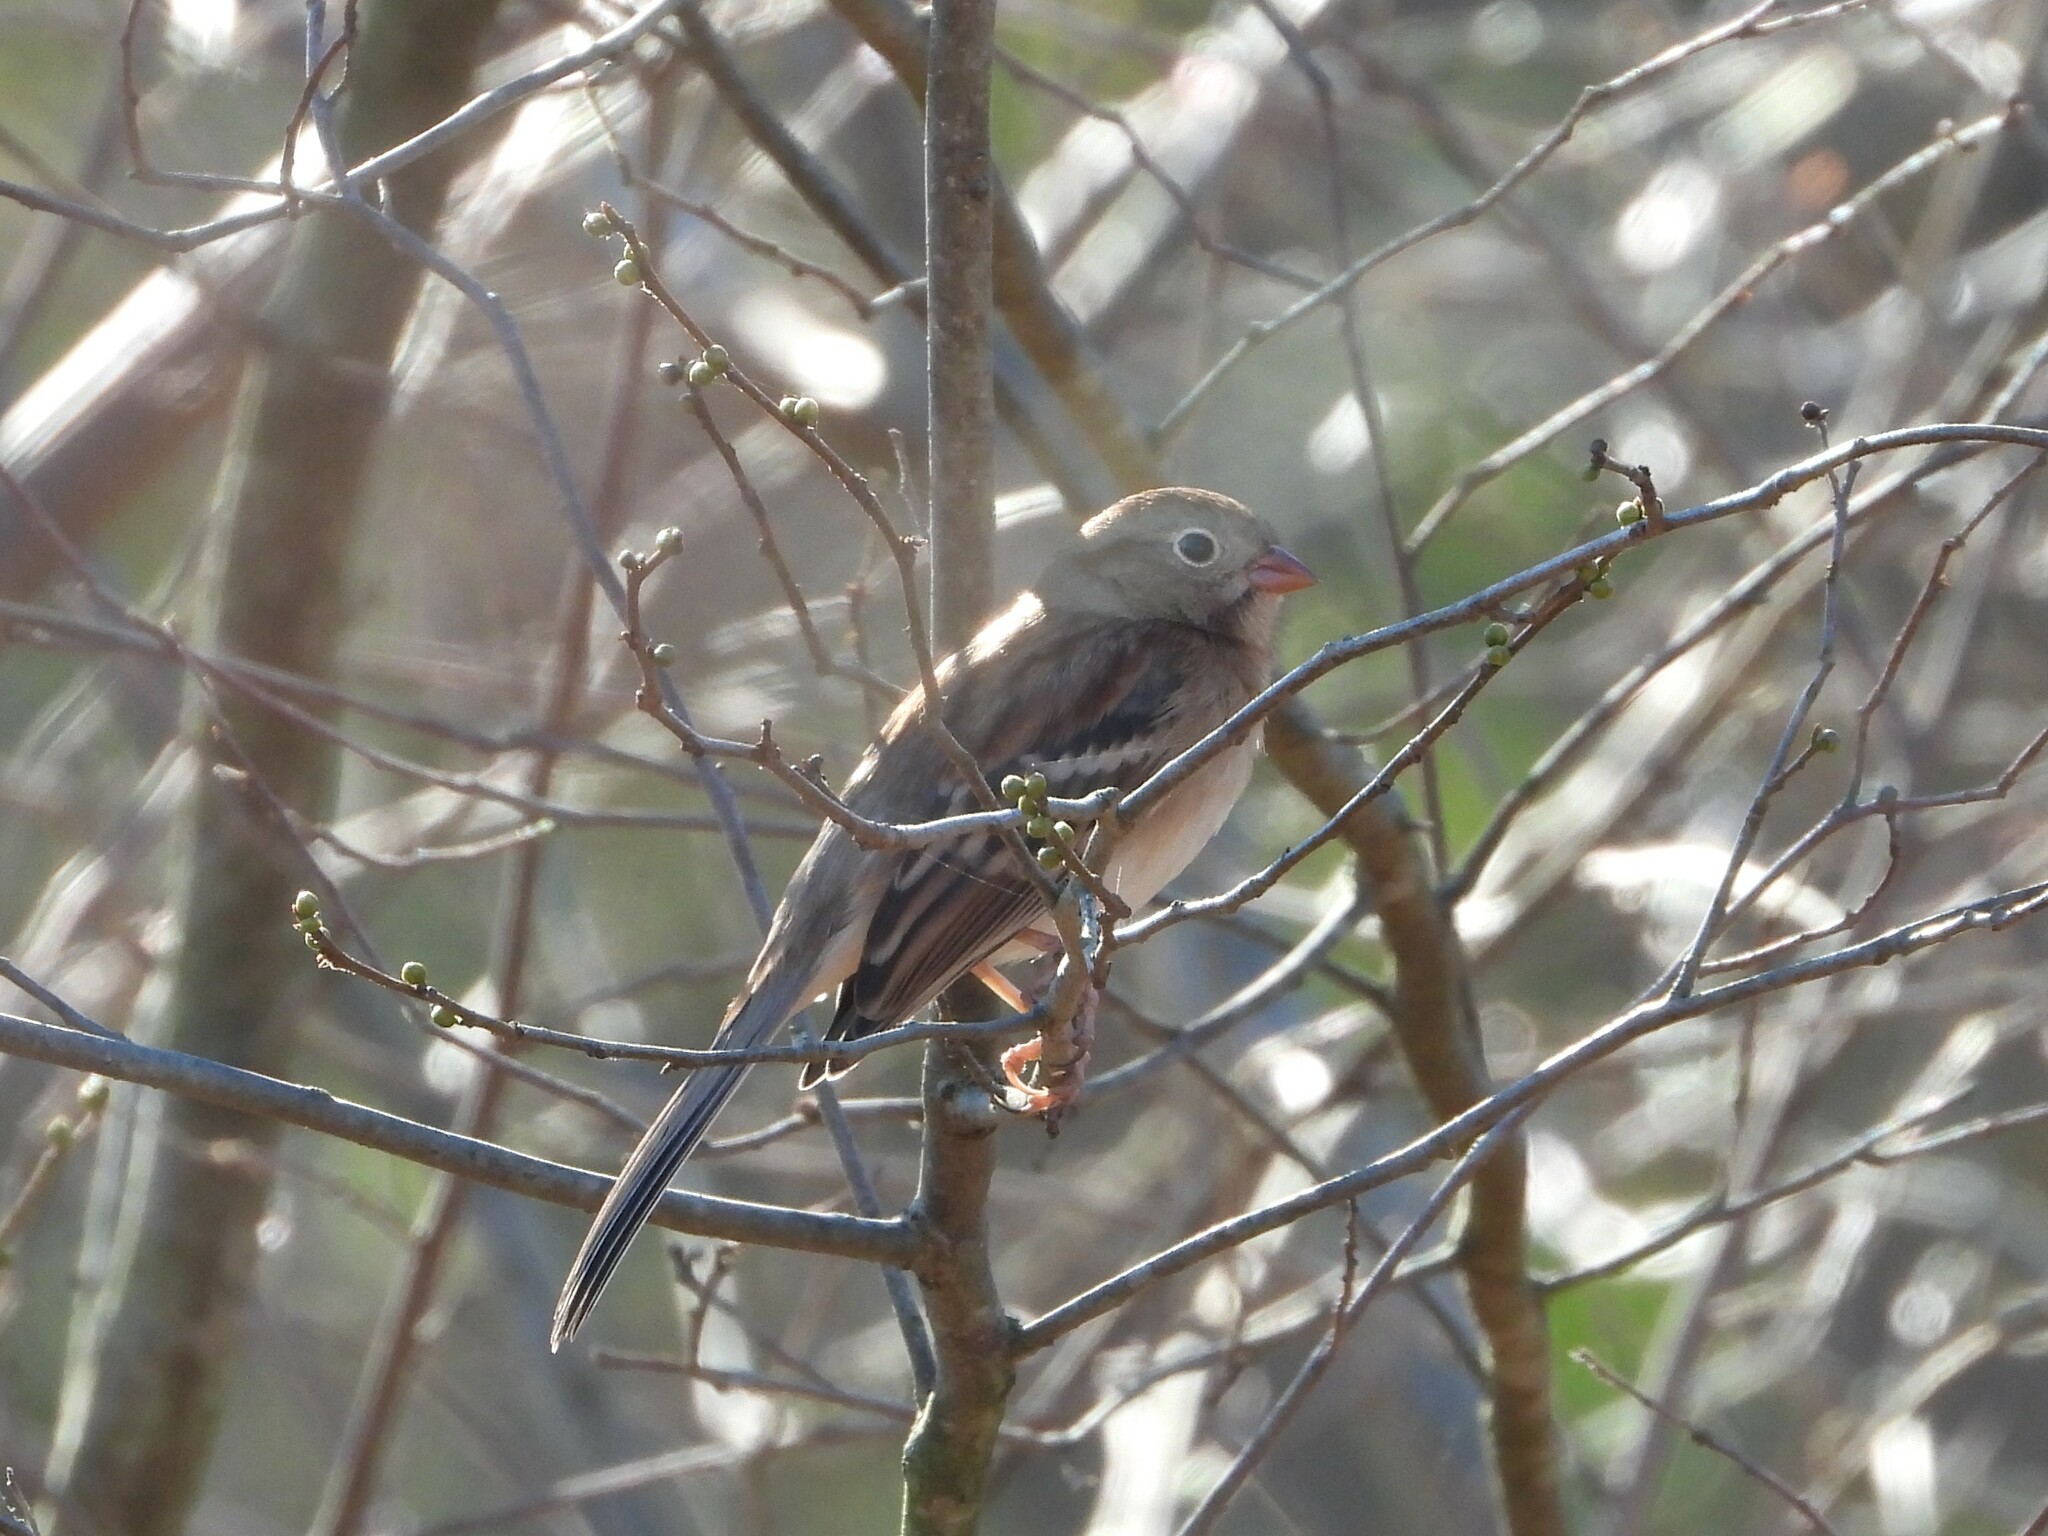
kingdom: Animalia
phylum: Chordata
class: Aves
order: Passeriformes
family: Passerellidae
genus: Spizella
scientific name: Spizella pusilla
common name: Field sparrow
